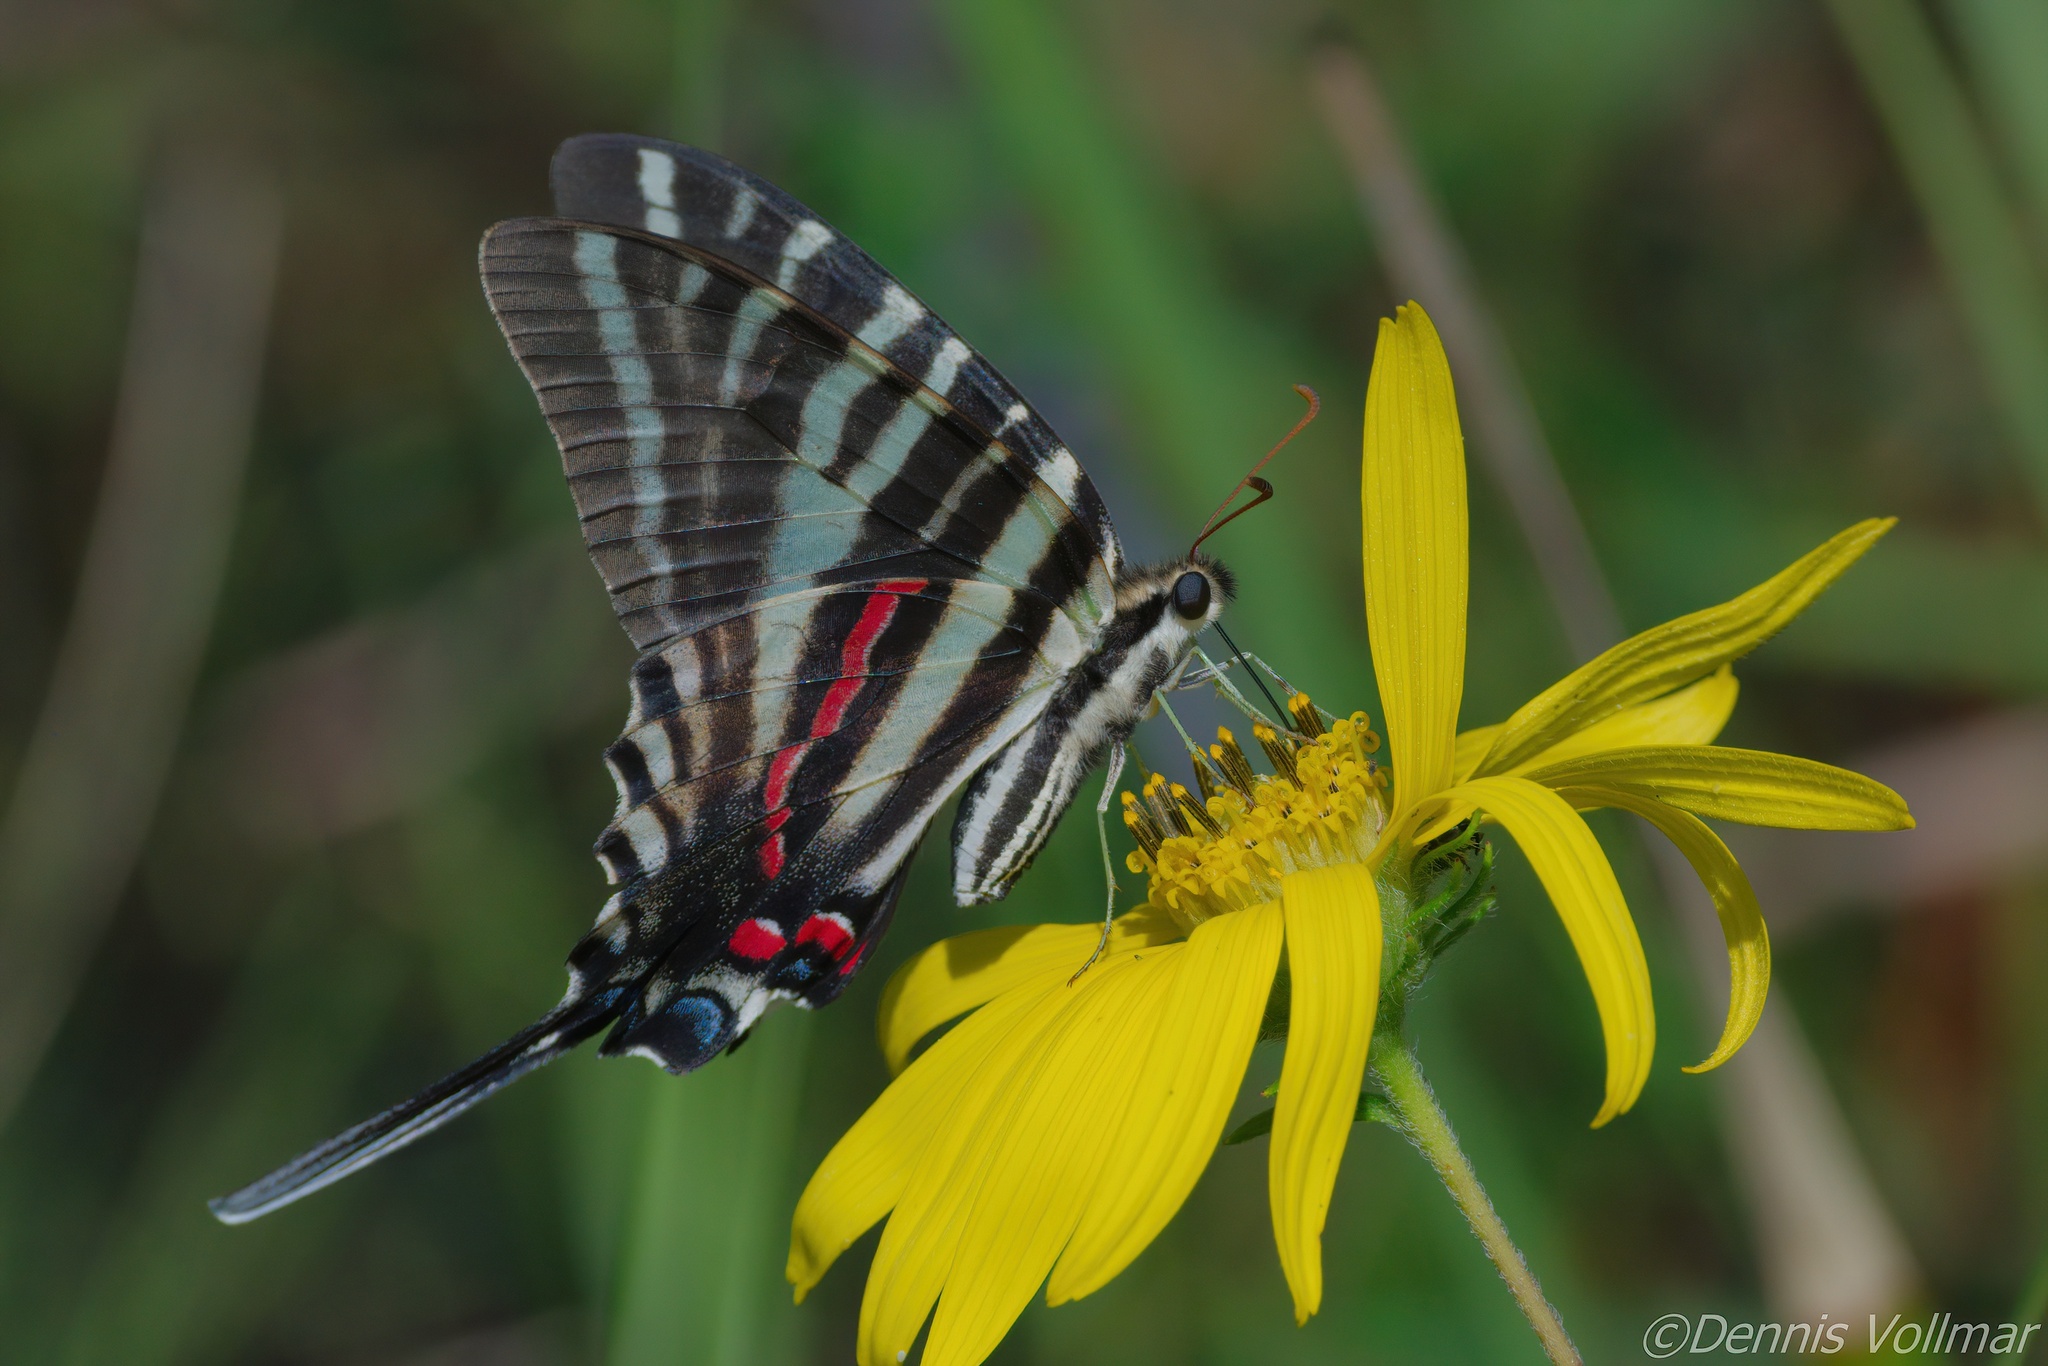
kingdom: Animalia
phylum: Arthropoda
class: Insecta
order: Lepidoptera
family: Papilionidae
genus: Protographium
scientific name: Protographium marcellus
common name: Zebra swallowtail
